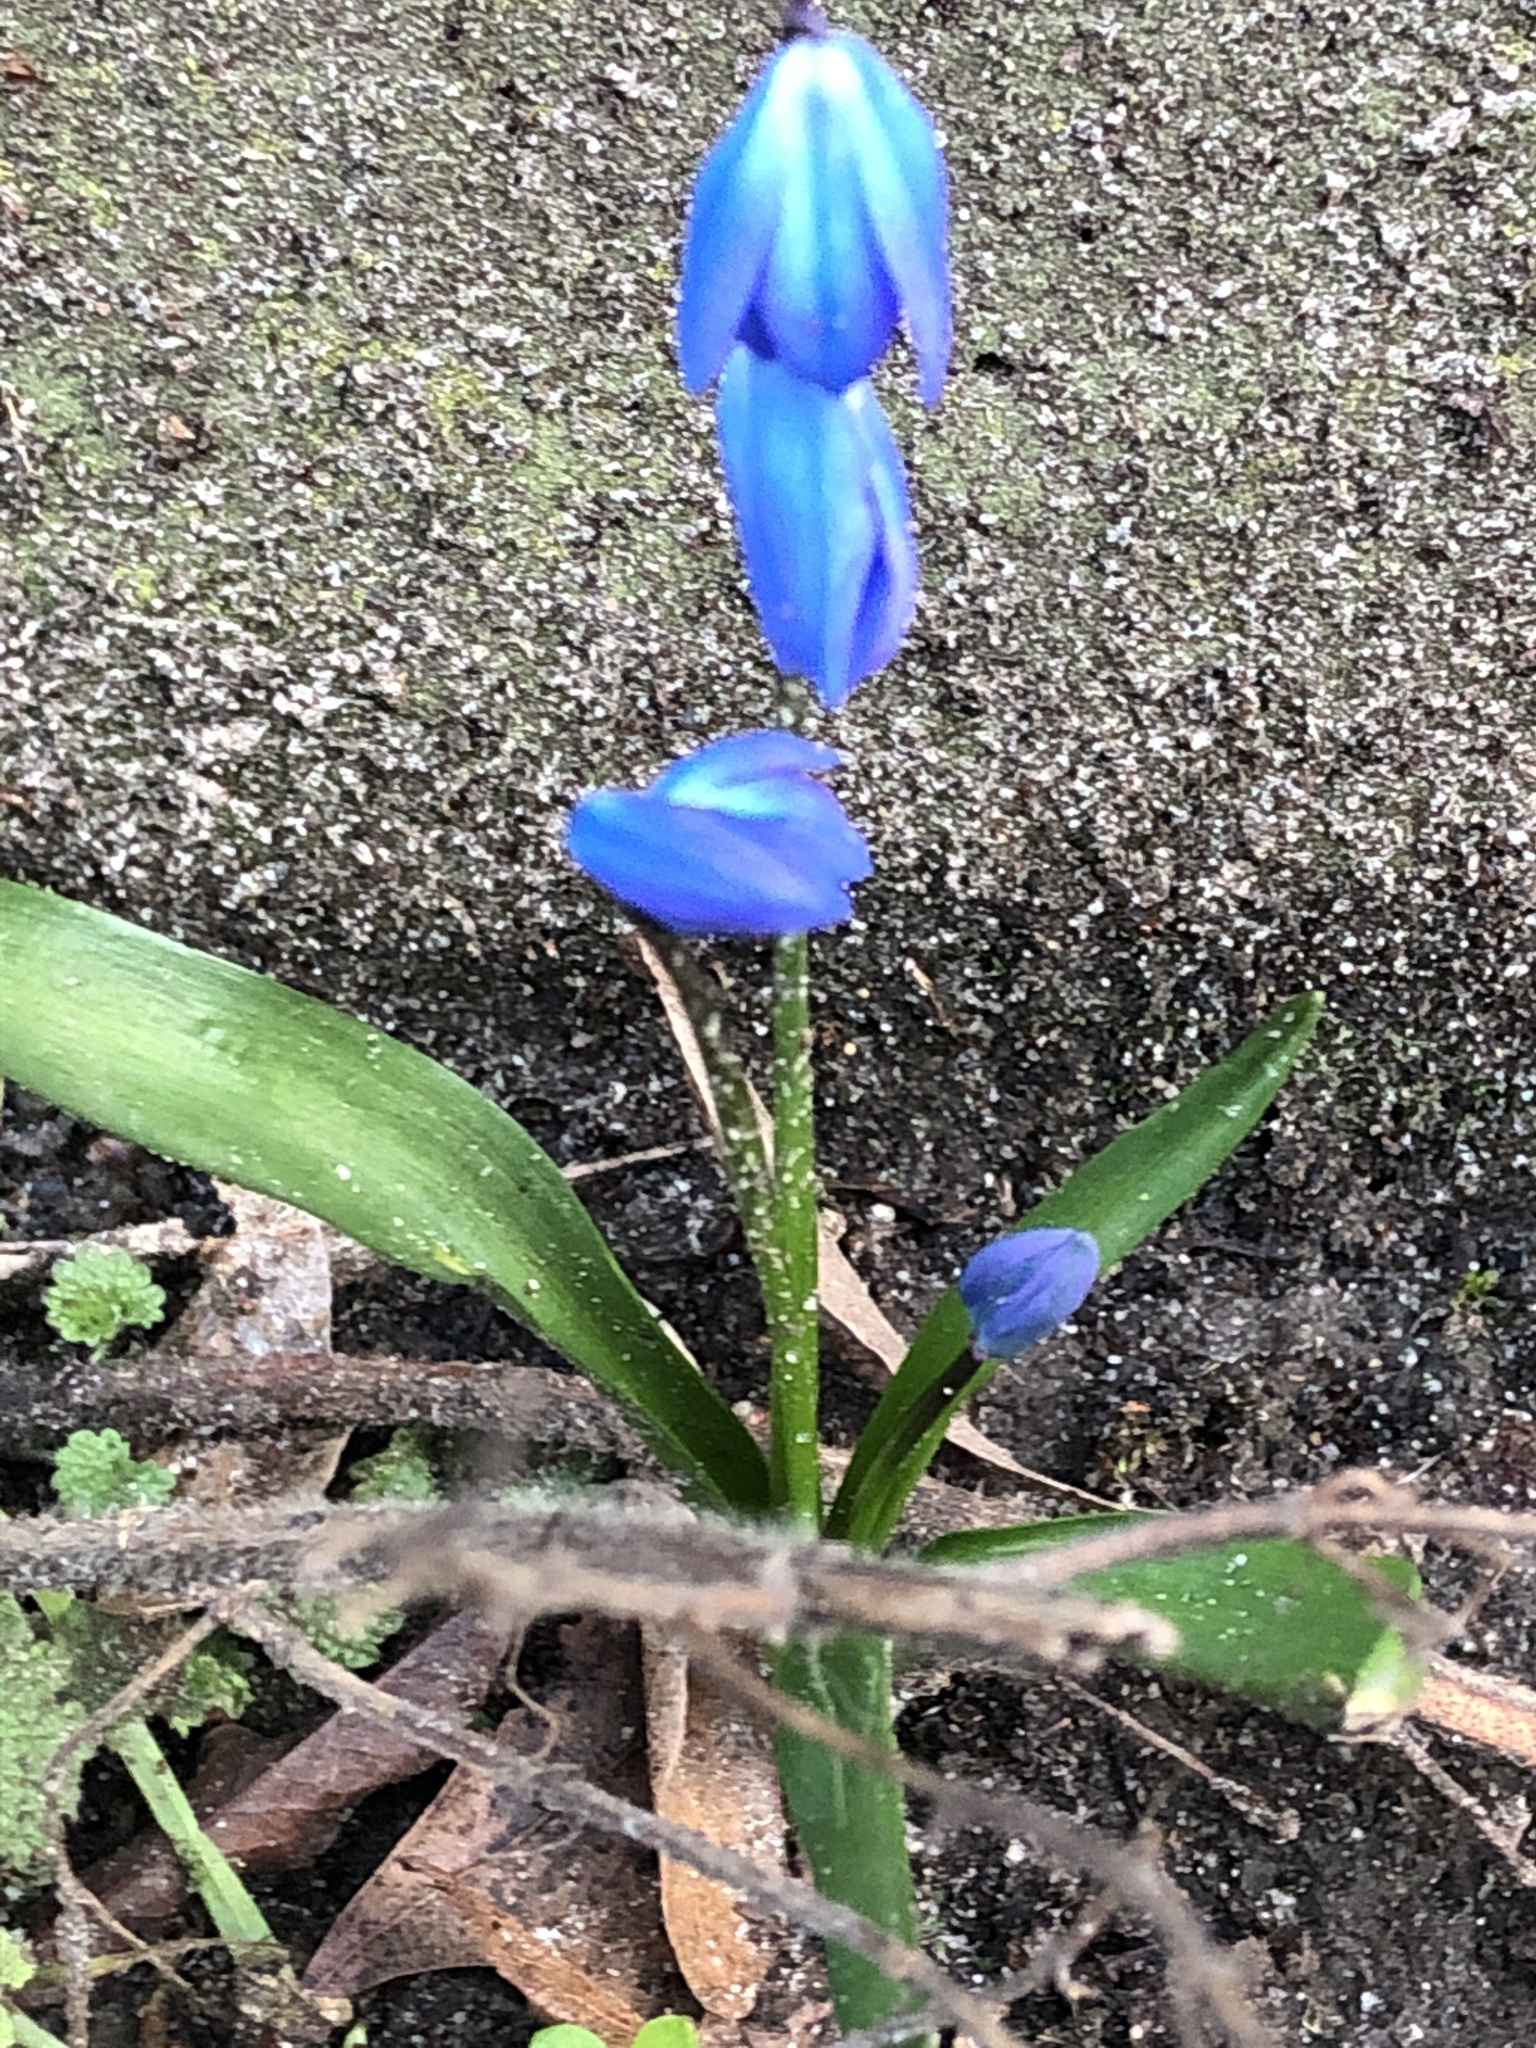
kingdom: Plantae
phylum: Tracheophyta
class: Liliopsida
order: Asparagales
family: Asparagaceae
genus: Scilla
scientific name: Scilla siberica
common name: Siberian squill
